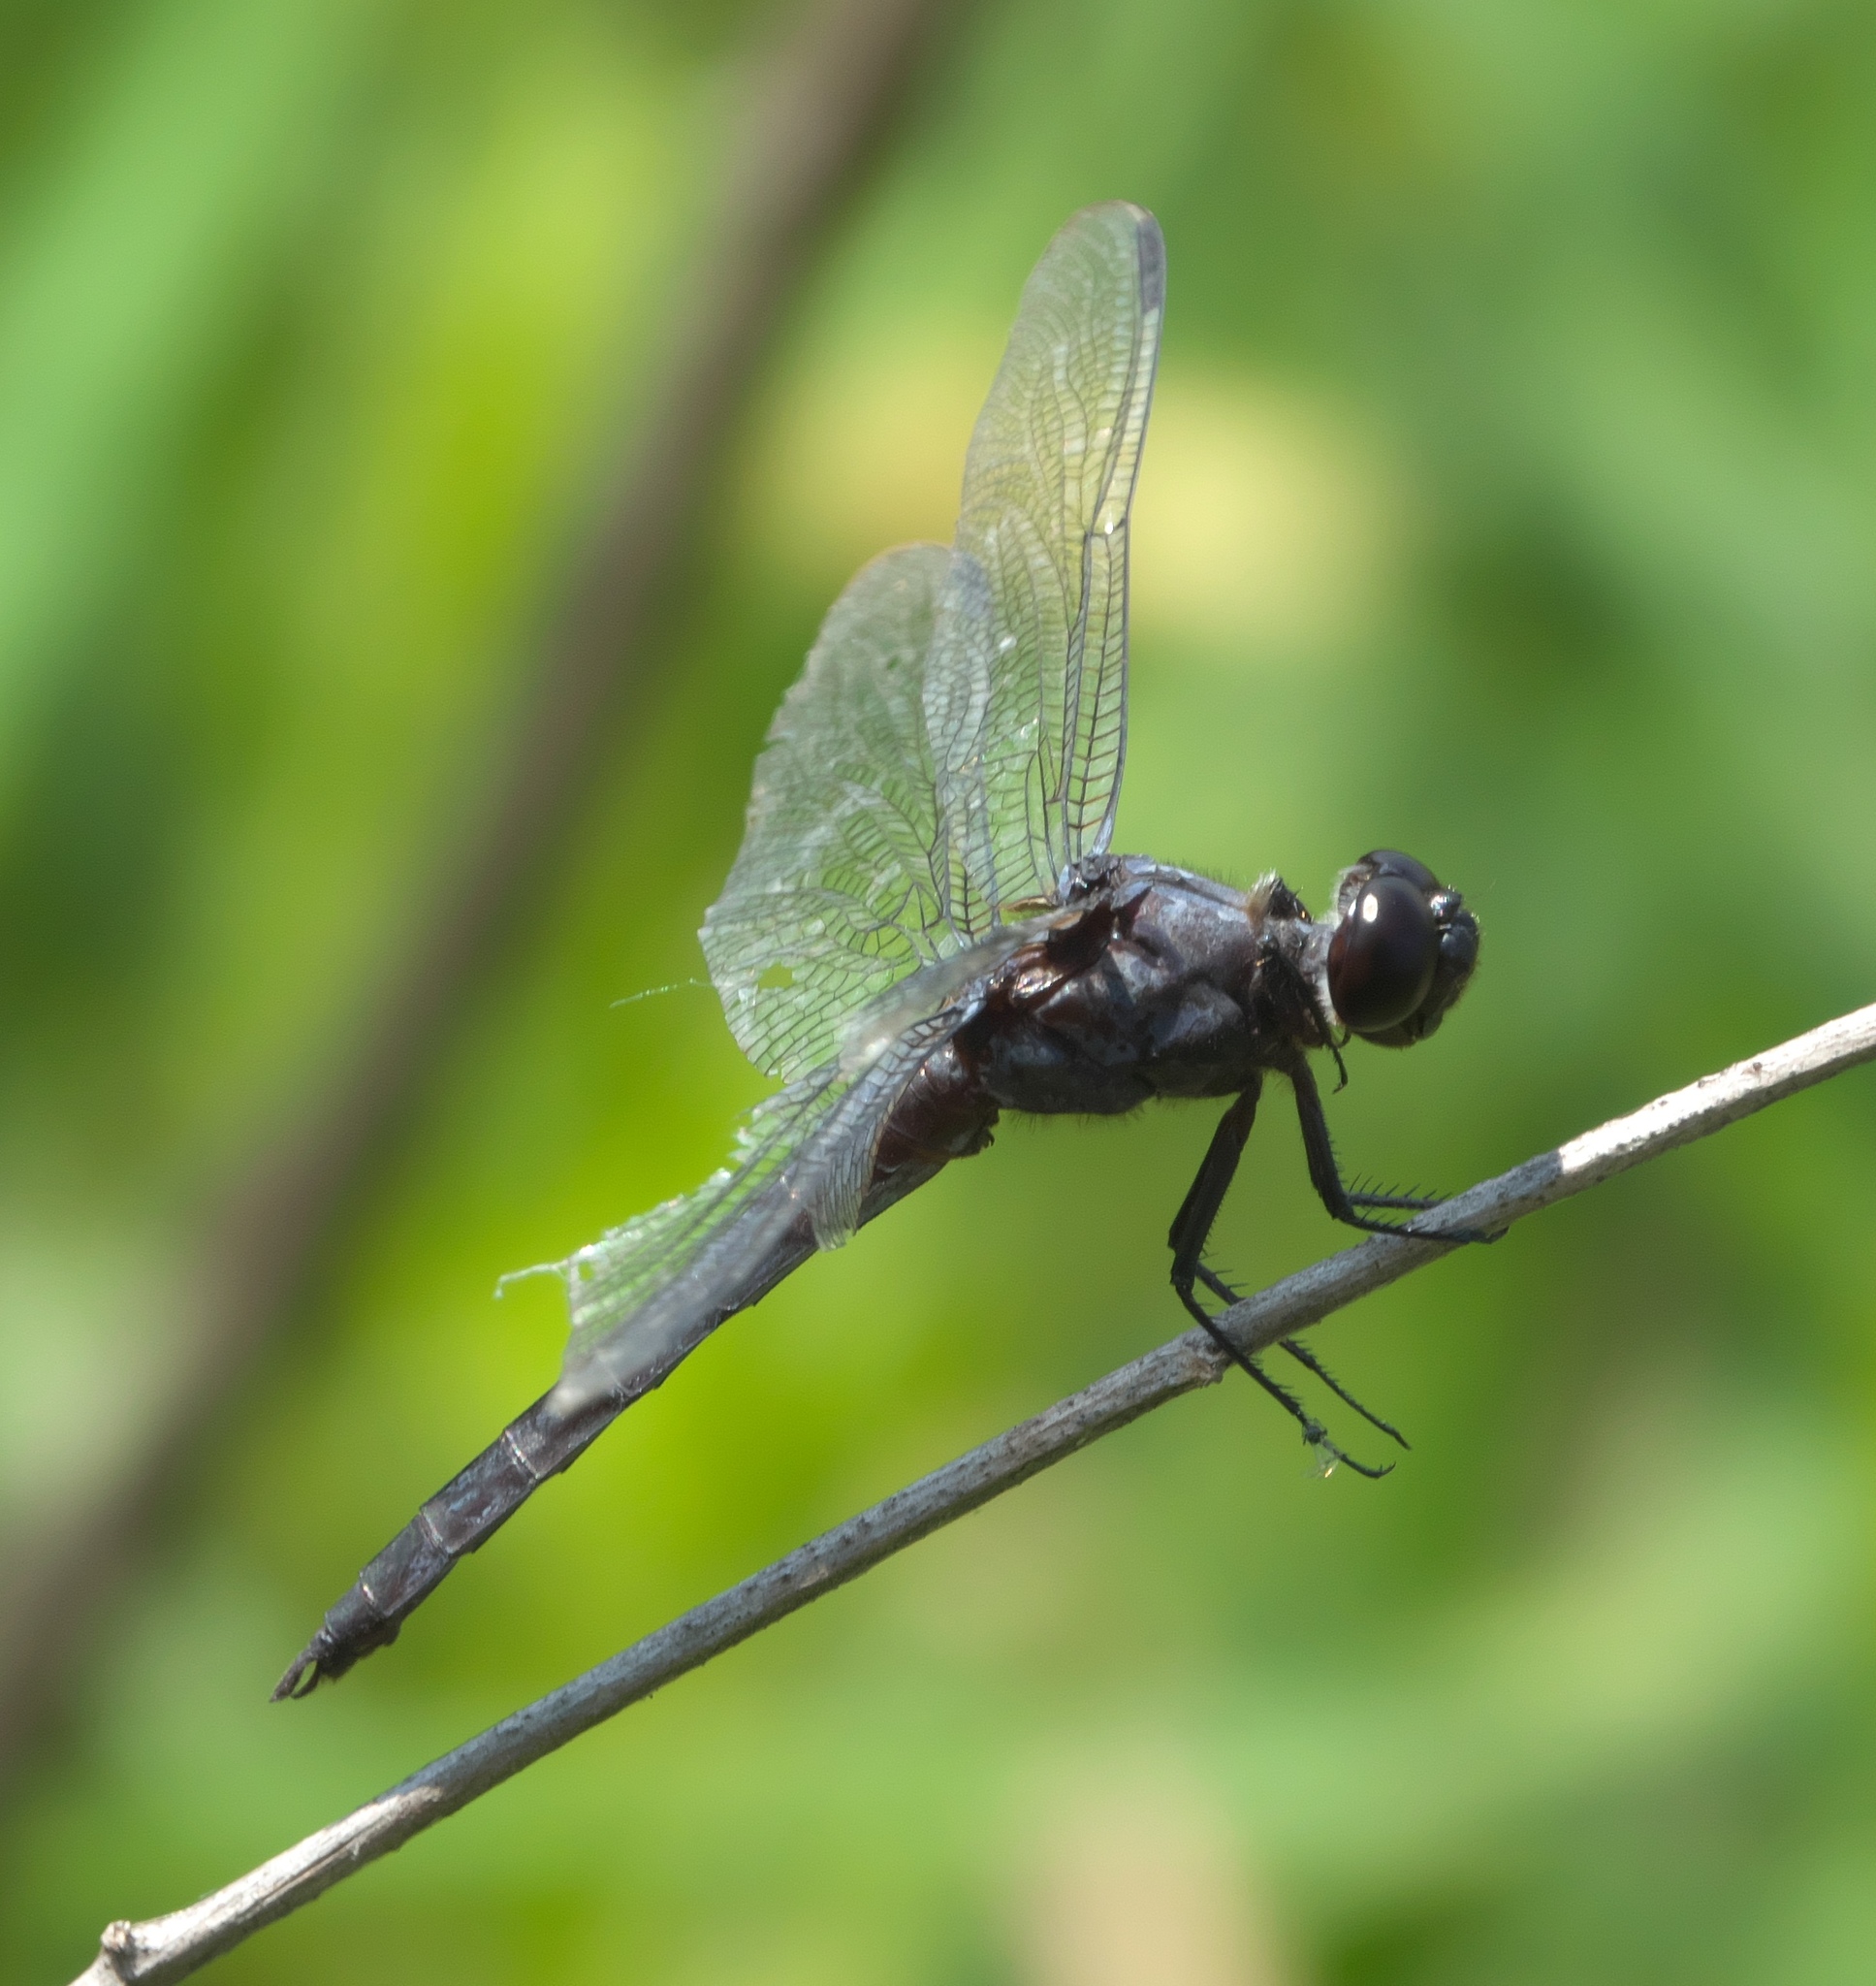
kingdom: Animalia
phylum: Arthropoda
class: Insecta
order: Odonata
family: Libellulidae
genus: Libellula
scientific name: Libellula incesta
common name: Slaty skimmer
